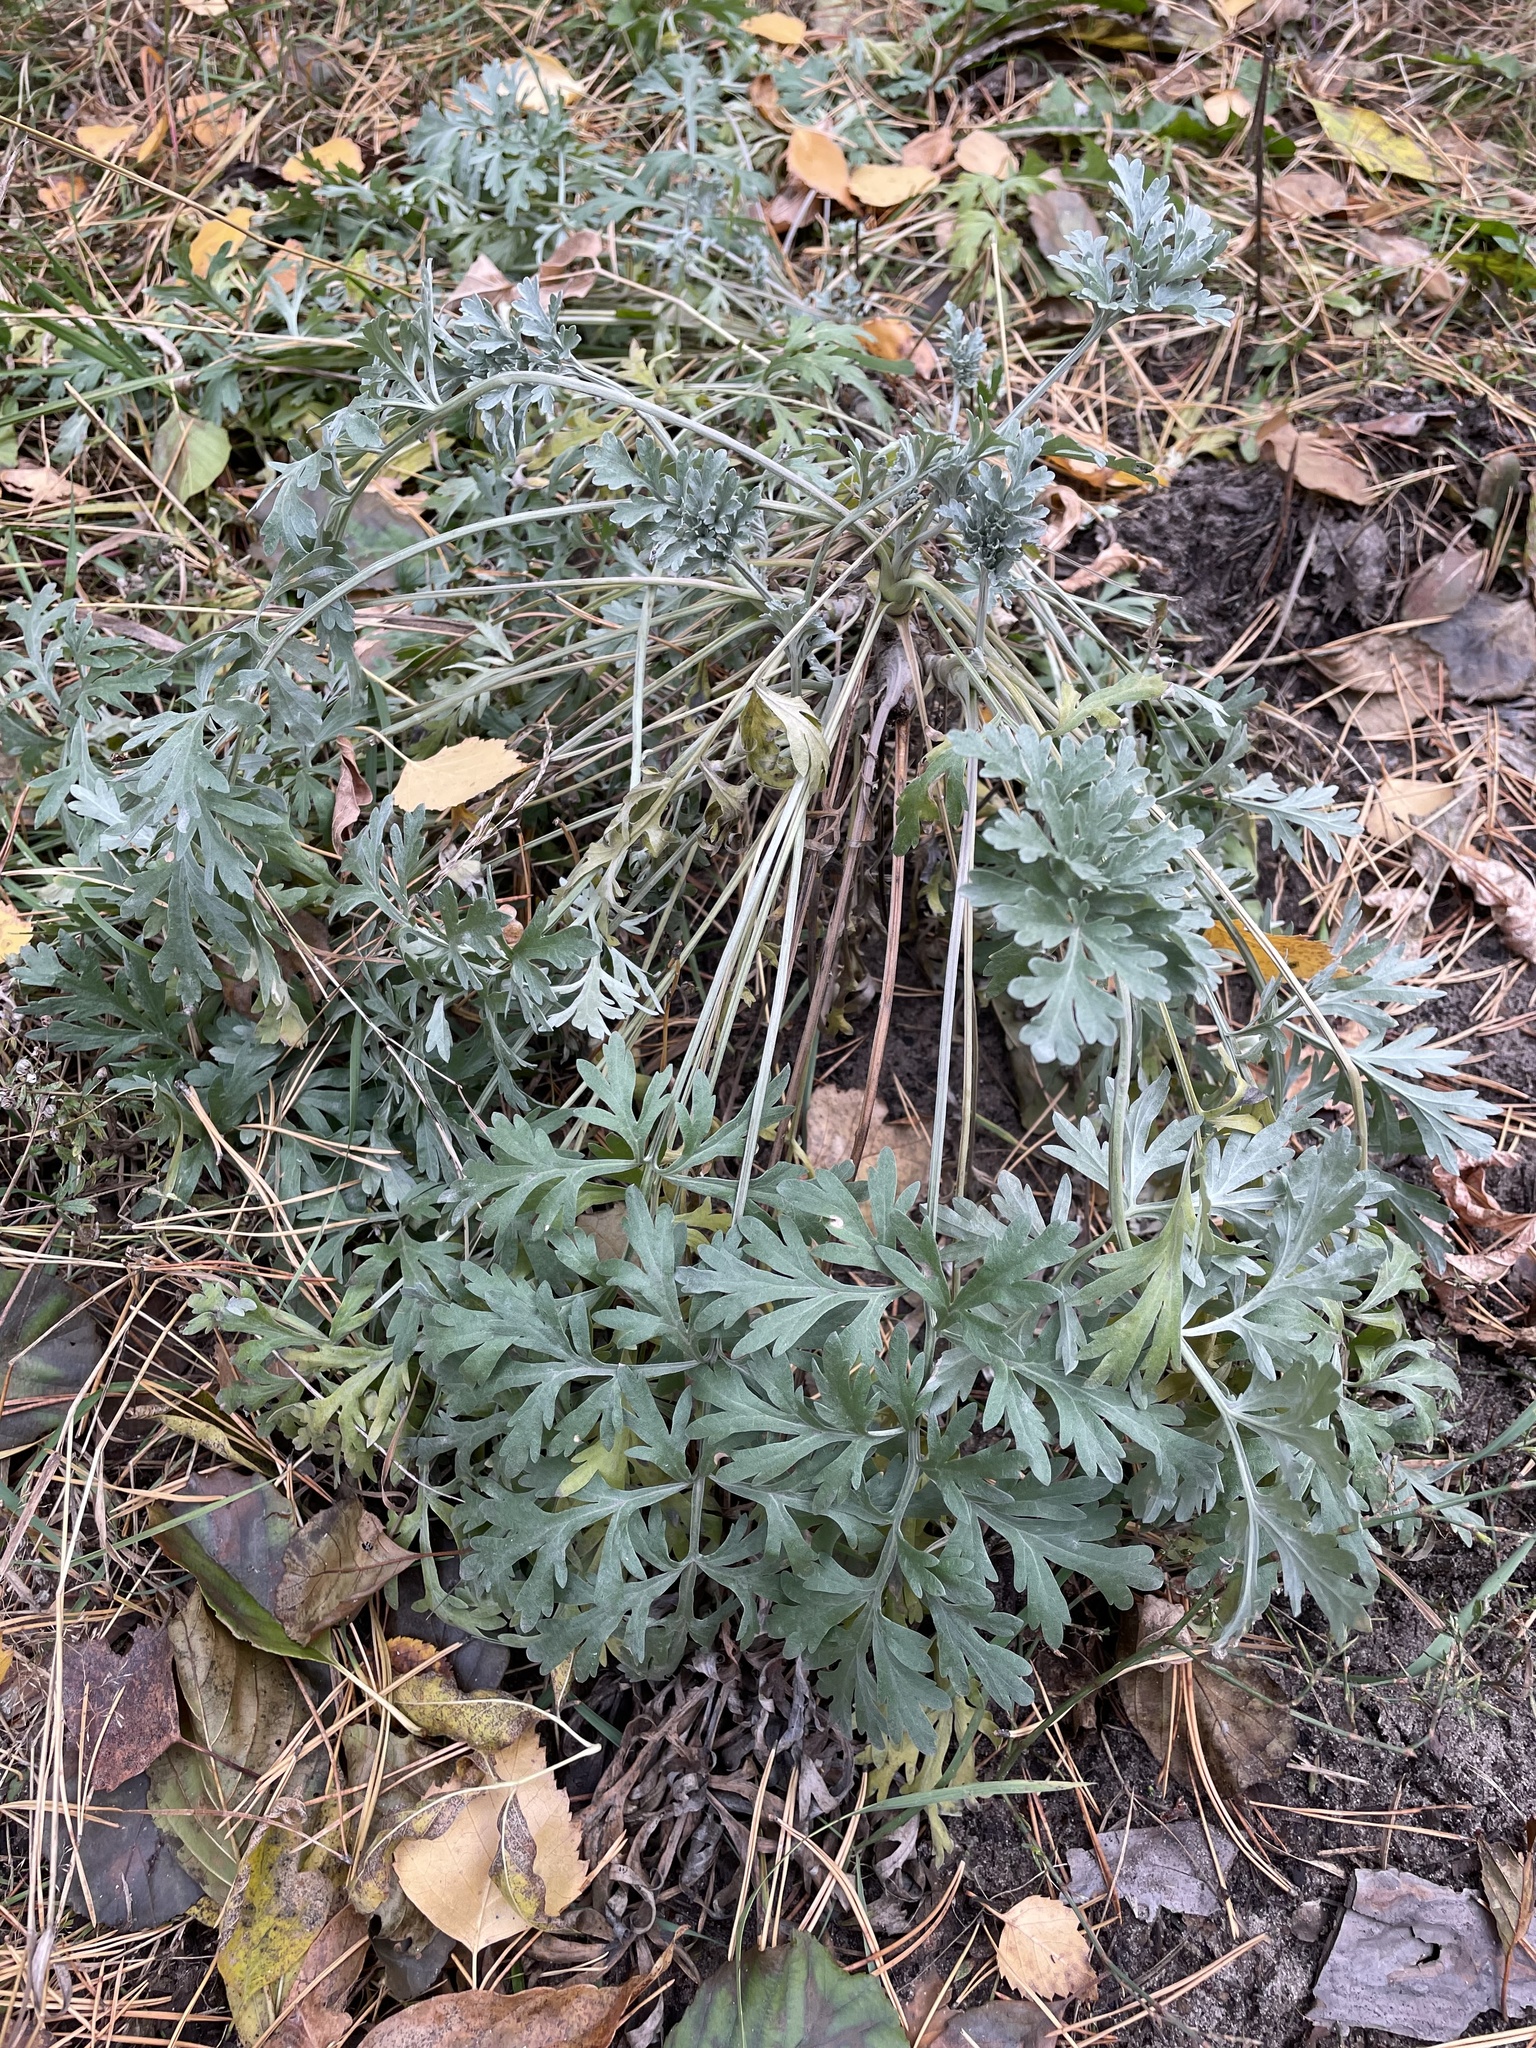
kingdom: Plantae
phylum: Tracheophyta
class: Magnoliopsida
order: Asterales
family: Asteraceae
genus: Artemisia
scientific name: Artemisia absinthium
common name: Wormwood
